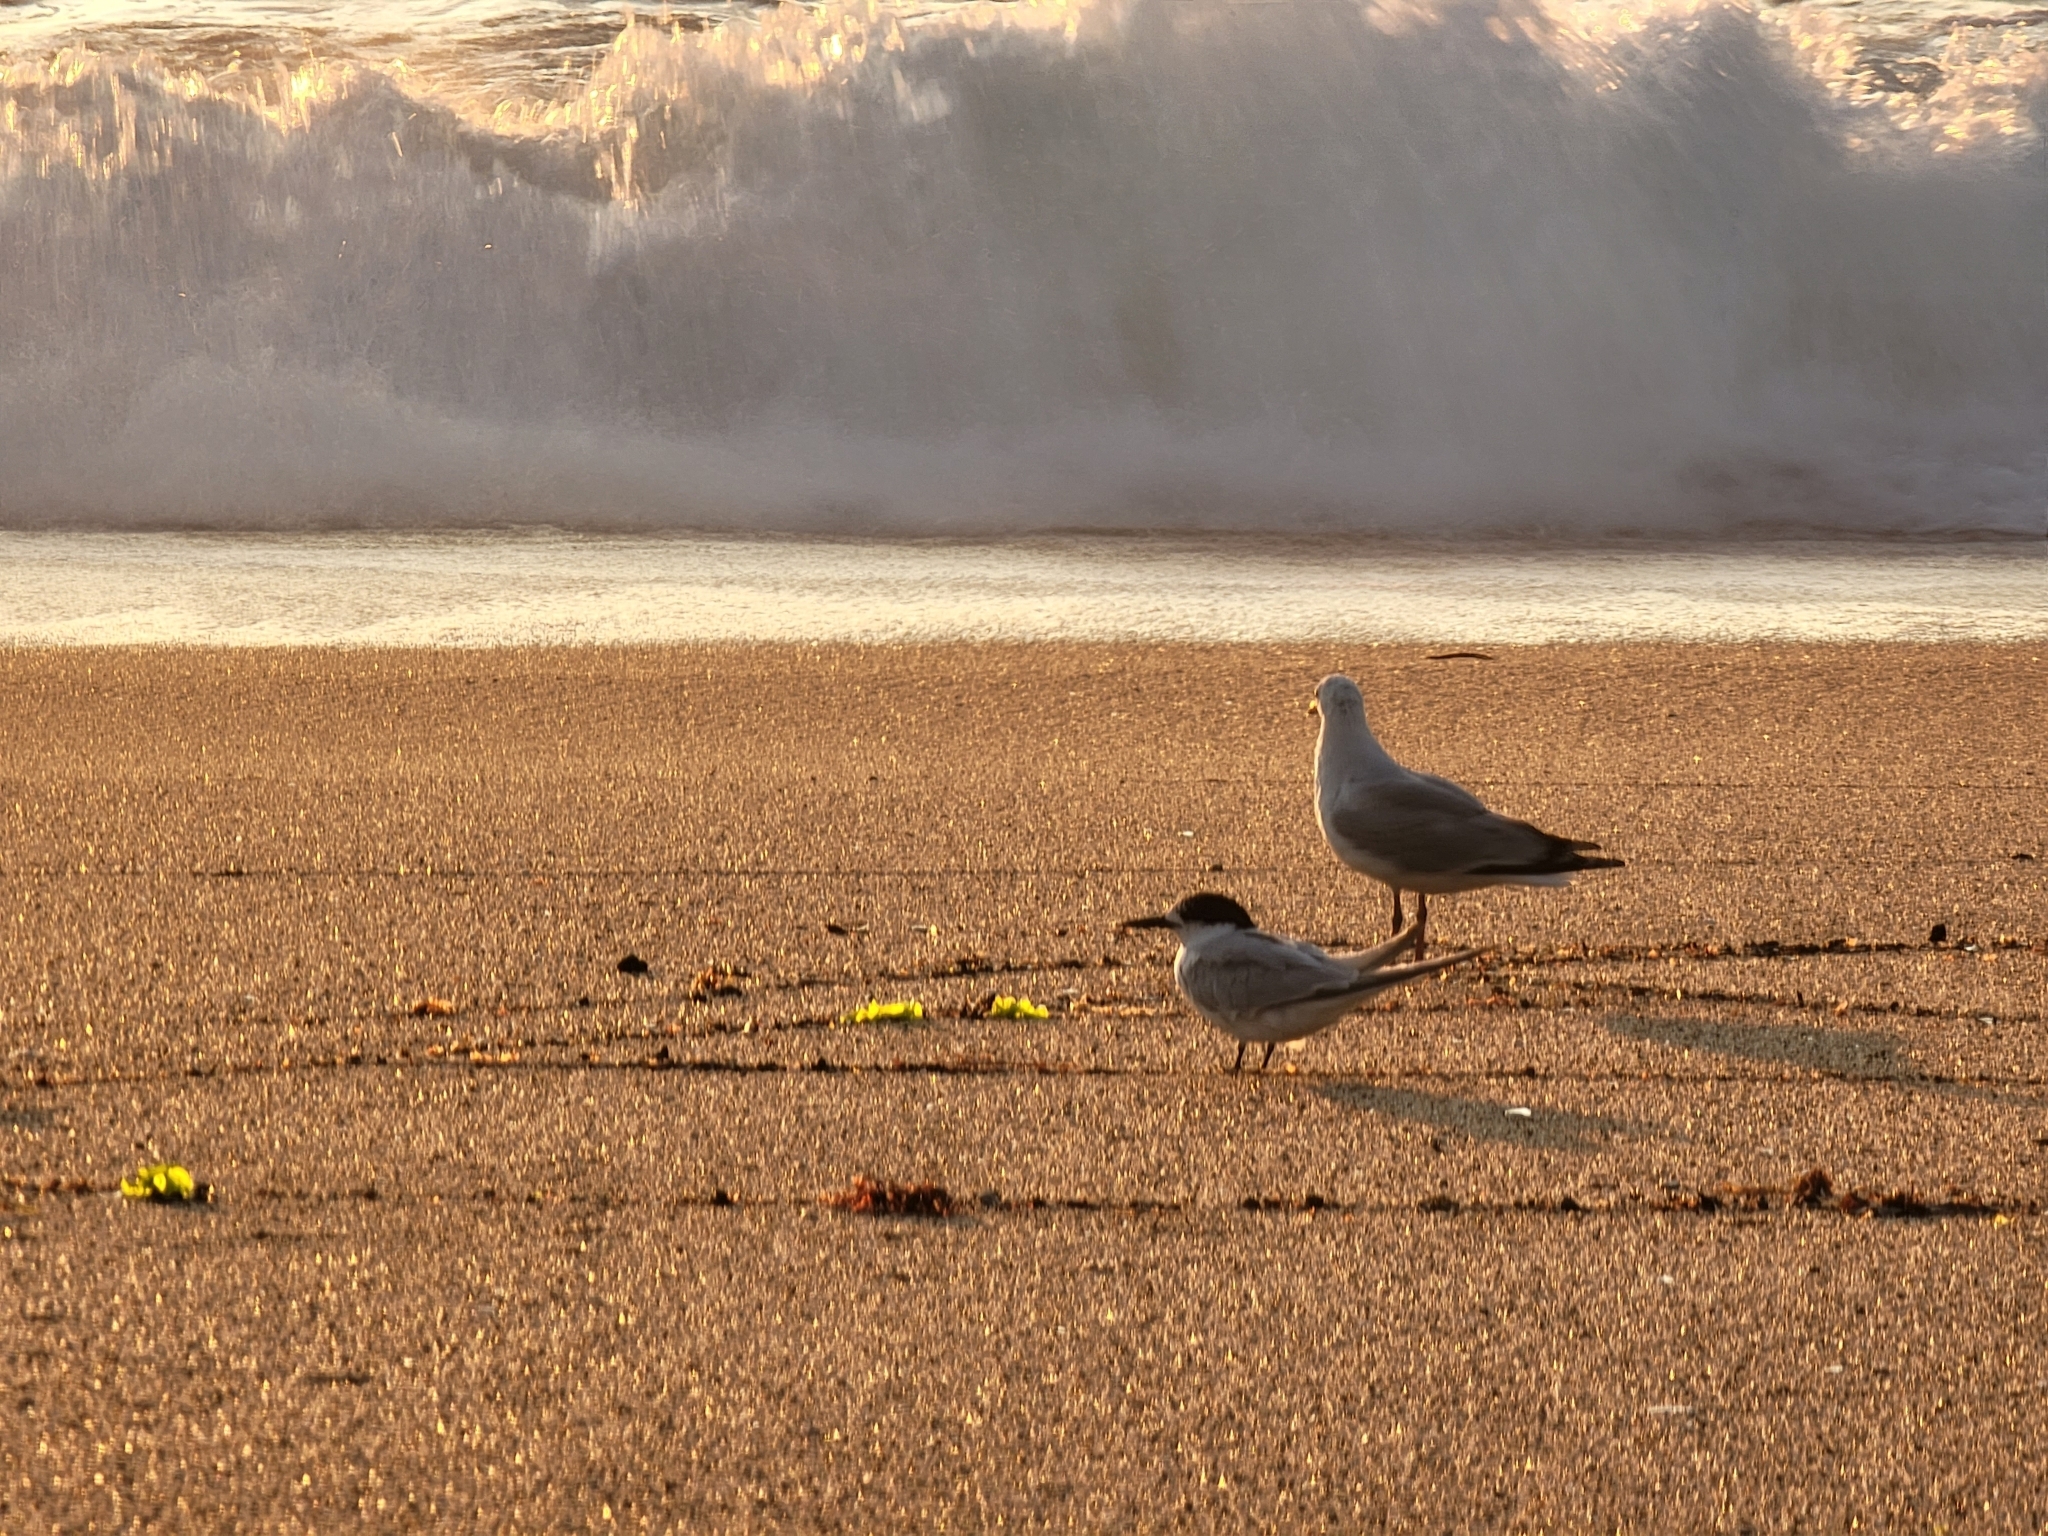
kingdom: Animalia
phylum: Chordata
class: Aves
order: Charadriiformes
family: Laridae
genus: Sterna
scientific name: Sterna striata
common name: White-fronted tern
